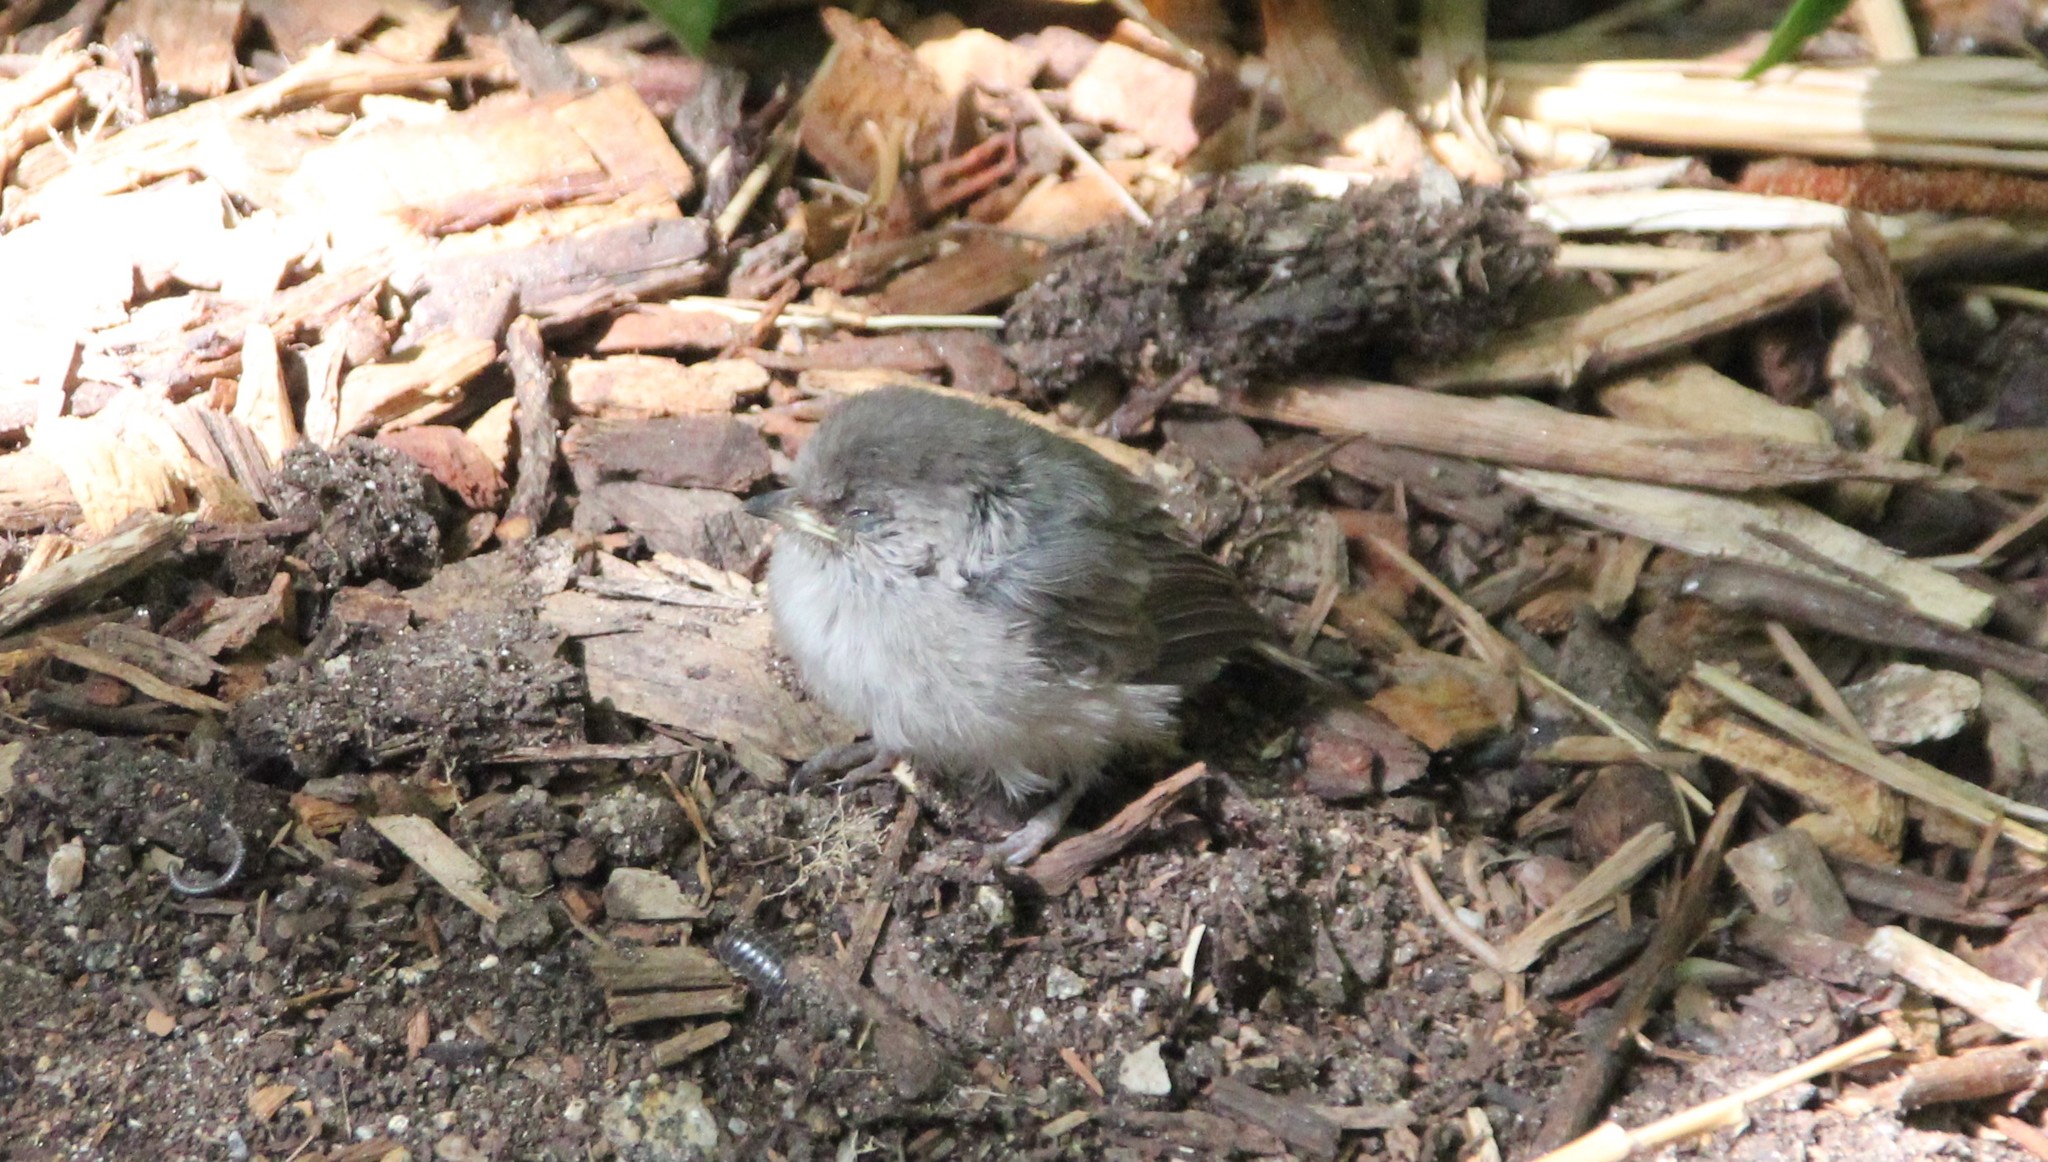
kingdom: Animalia
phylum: Chordata
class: Aves
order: Passeriformes
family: Aegithalidae
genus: Psaltriparus
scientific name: Psaltriparus minimus
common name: American bushtit
